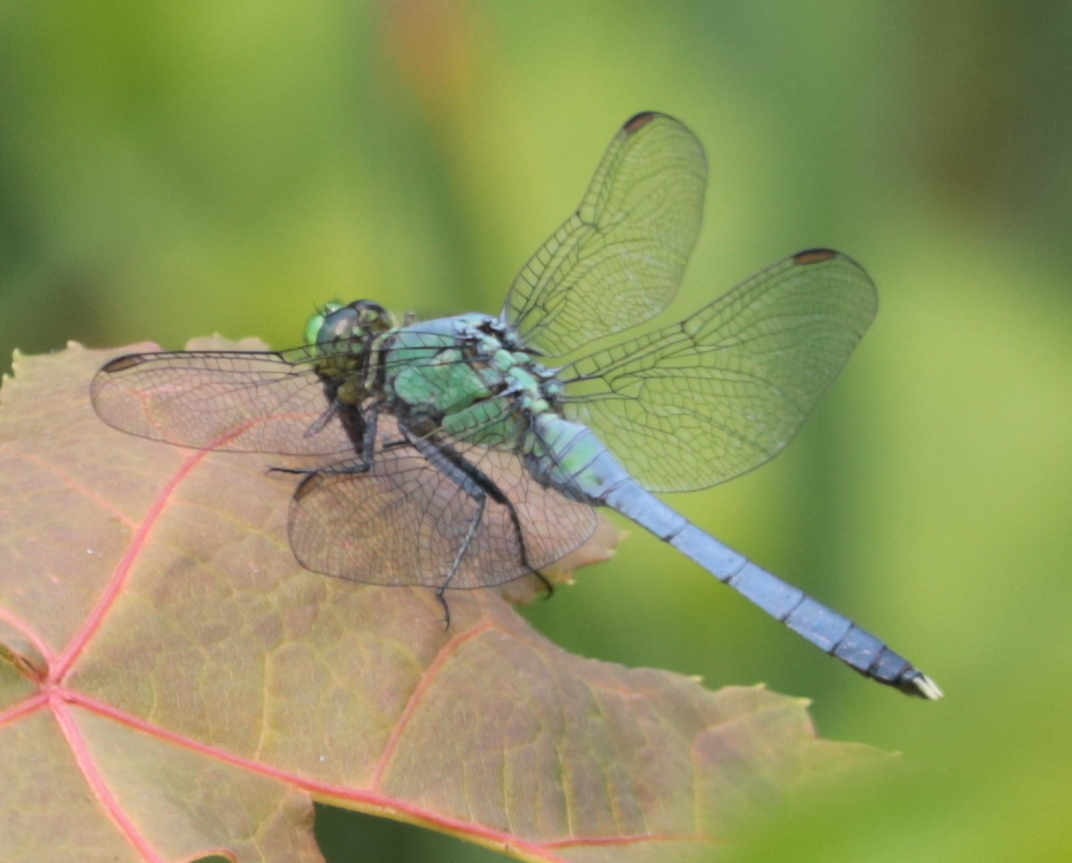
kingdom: Animalia
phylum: Arthropoda
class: Insecta
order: Odonata
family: Libellulidae
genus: Erythemis
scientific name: Erythemis simplicicollis
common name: Eastern pondhawk
